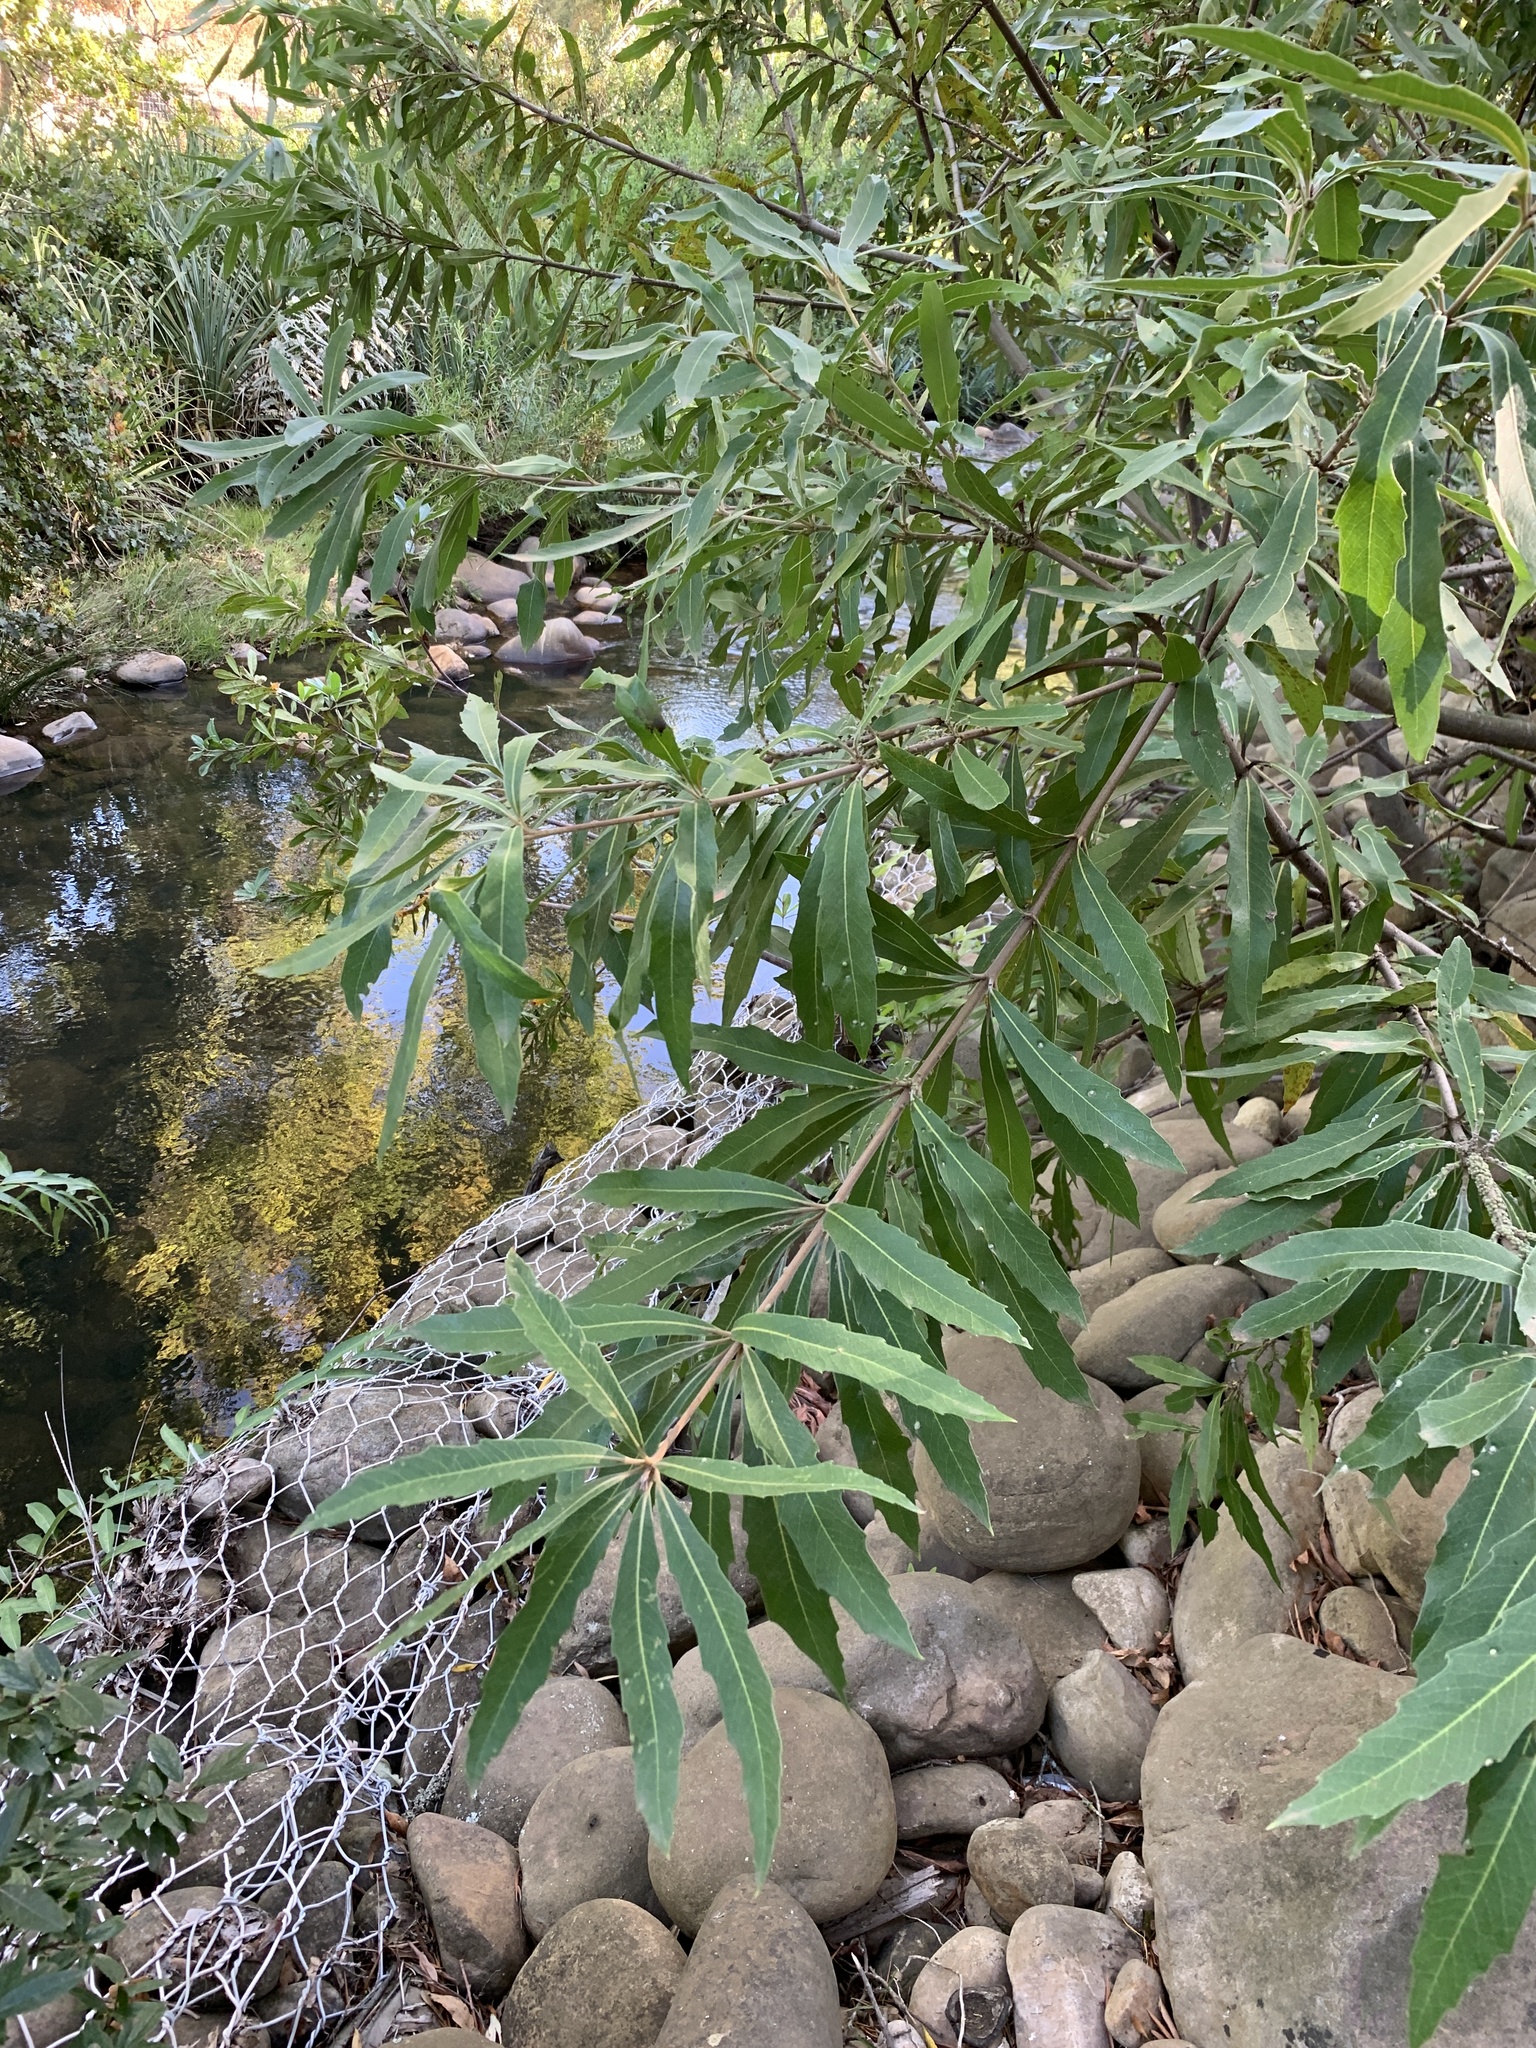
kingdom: Plantae
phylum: Tracheophyta
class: Magnoliopsida
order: Proteales
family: Proteaceae
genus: Brabejum
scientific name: Brabejum stellatifolium
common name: Wild almond
